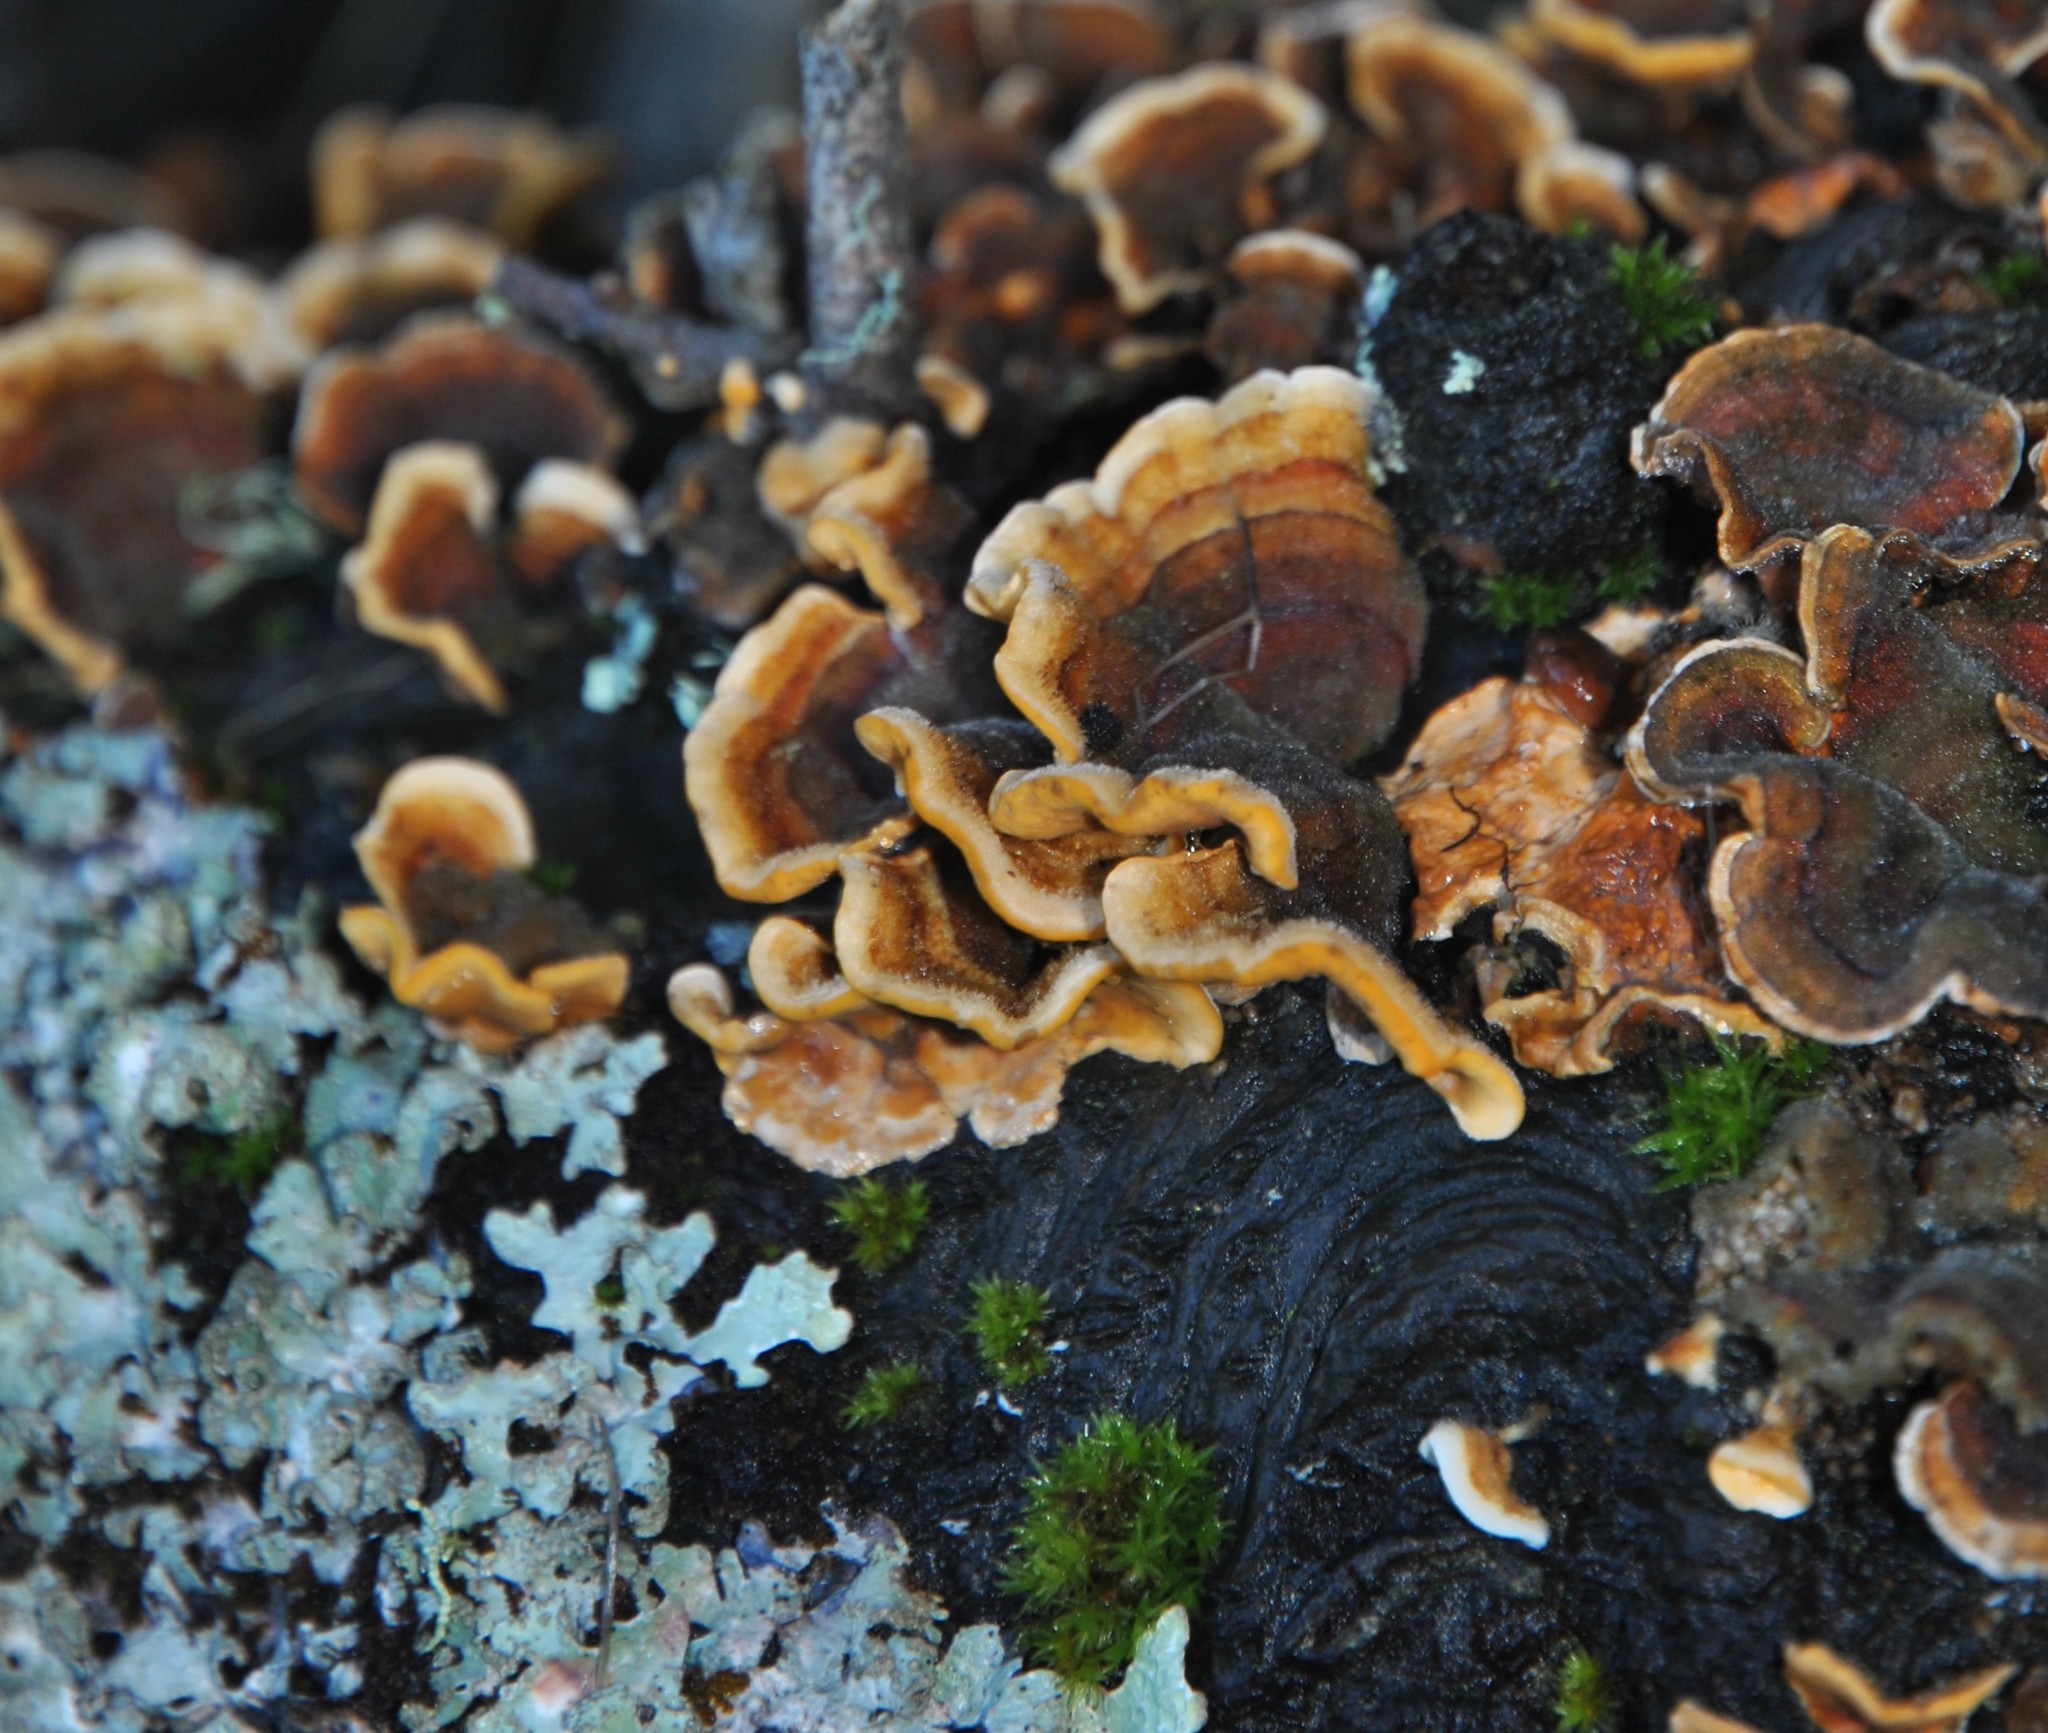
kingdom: Fungi
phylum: Basidiomycota
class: Agaricomycetes
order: Russulales
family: Stereaceae
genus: Stereum
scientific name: Stereum hirsutum
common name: Hairy curtain crust
